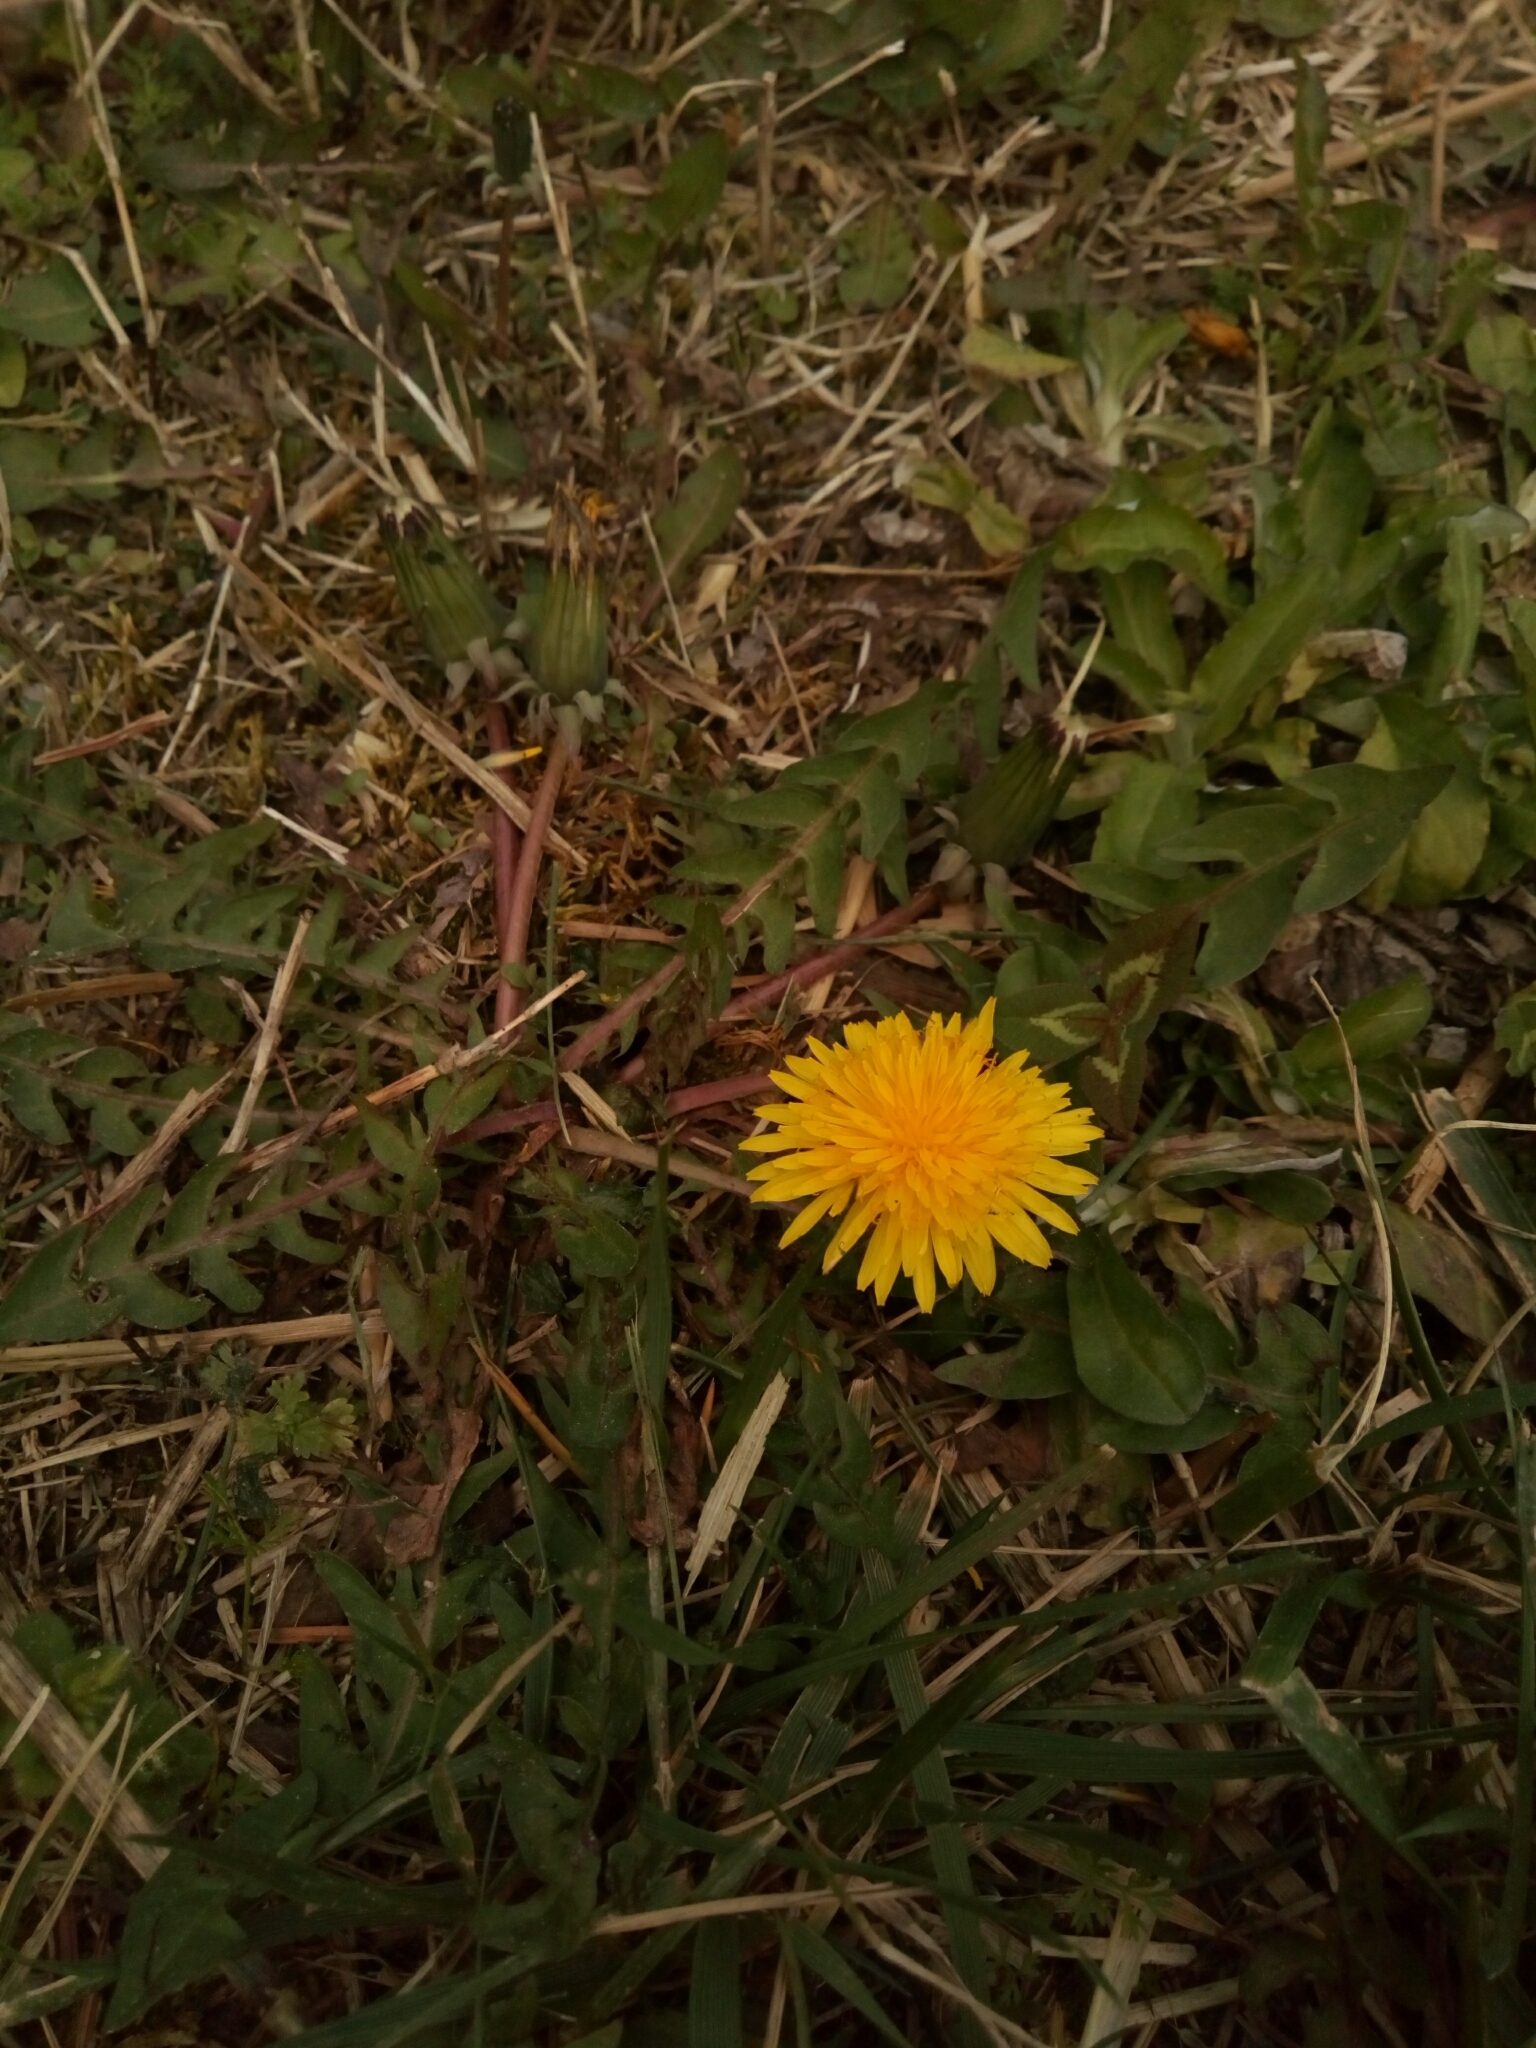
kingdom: Plantae
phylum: Tracheophyta
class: Magnoliopsida
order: Asterales
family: Asteraceae
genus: Taraxacum
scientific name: Taraxacum officinale
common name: Common dandelion
